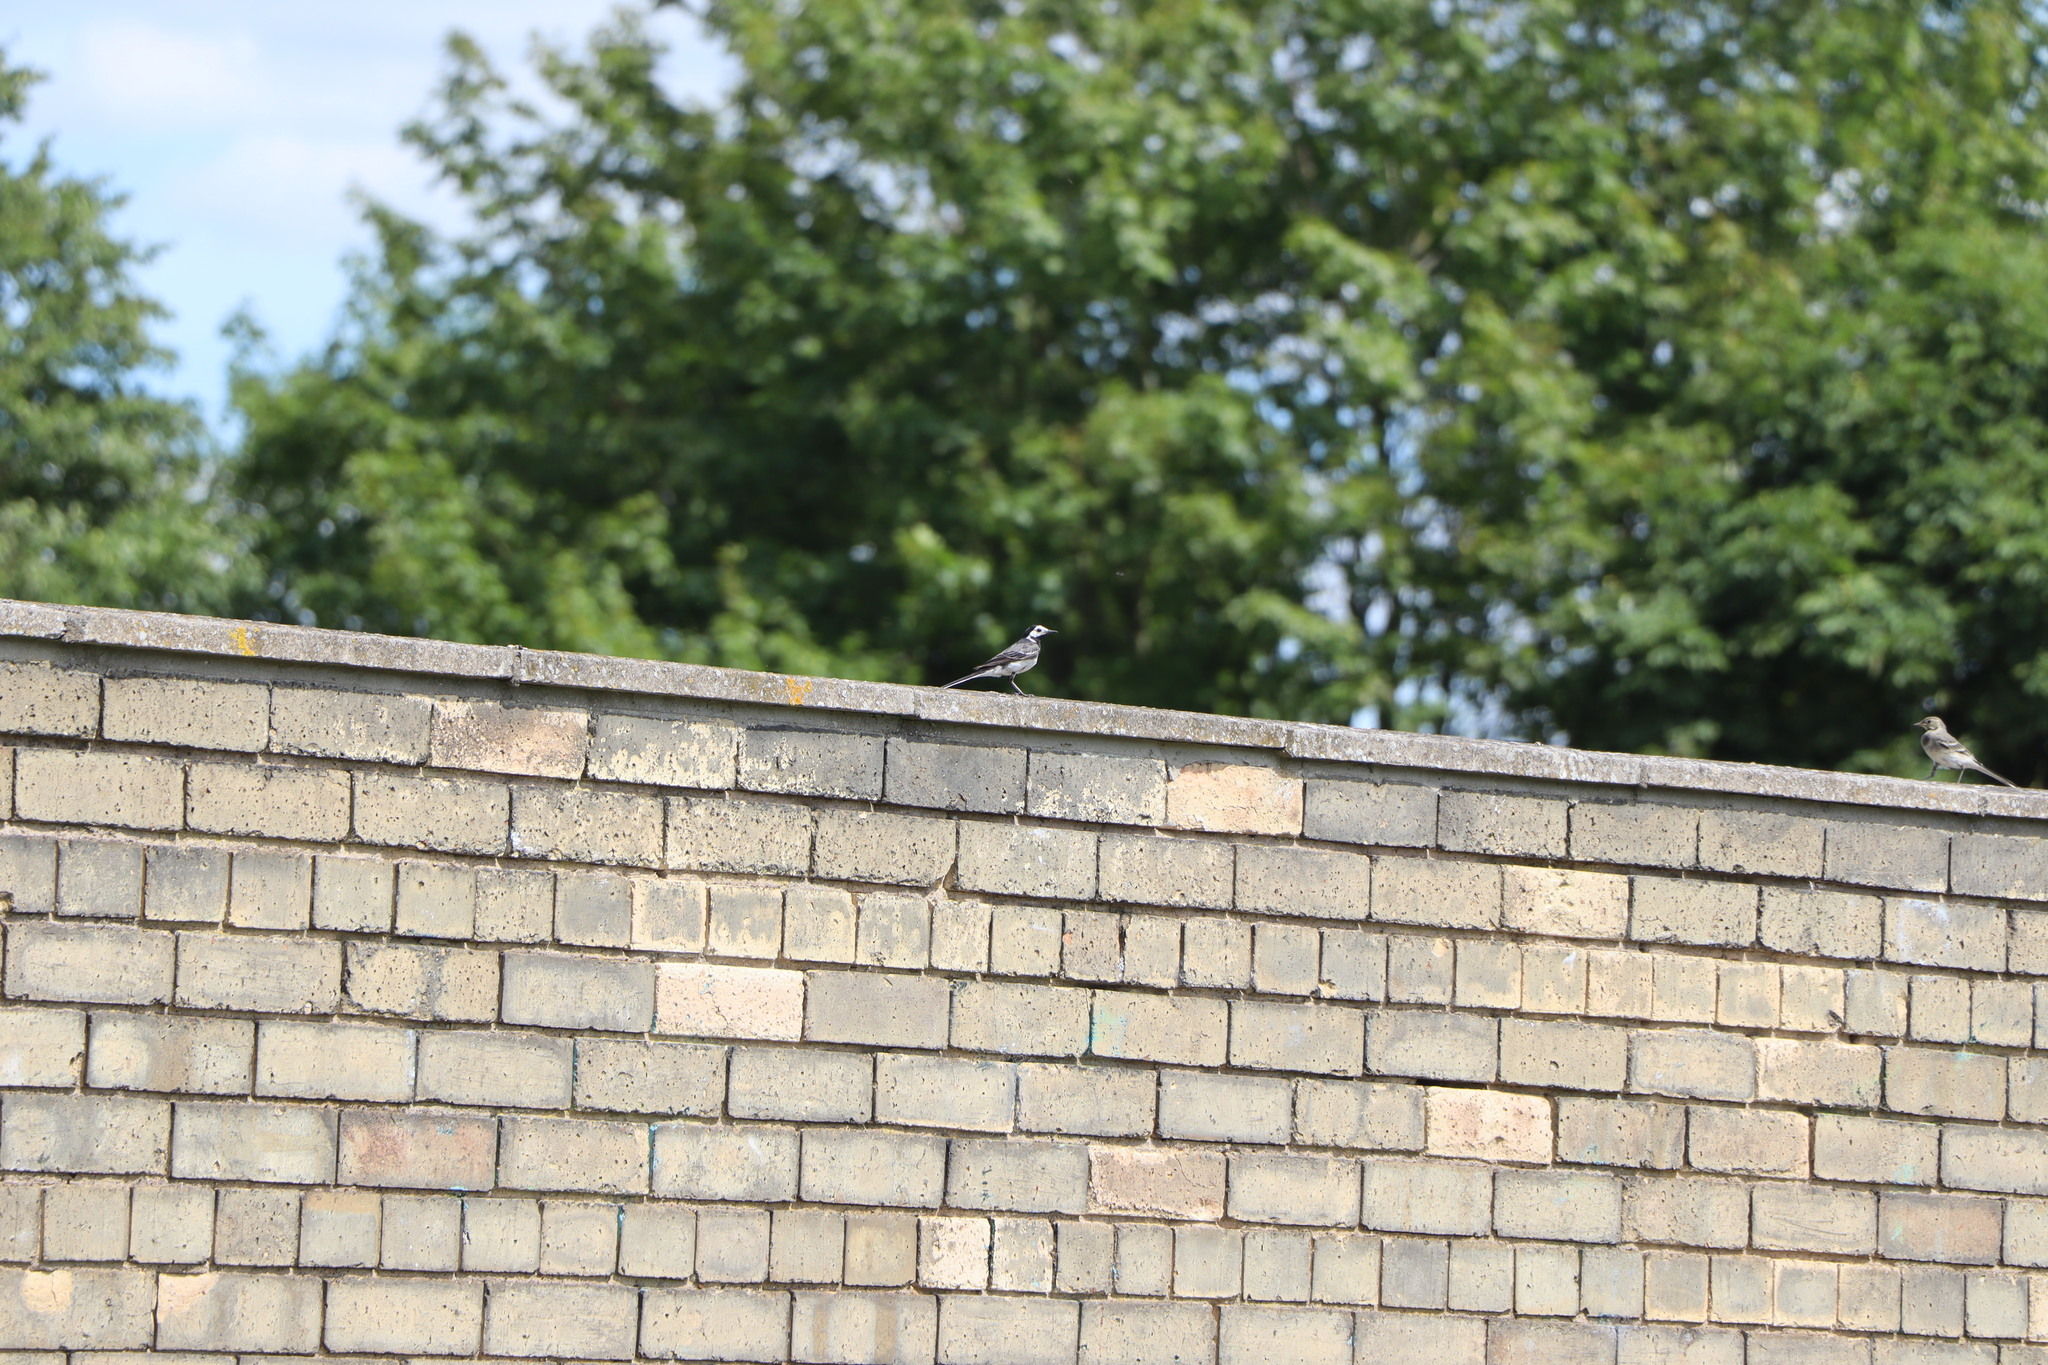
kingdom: Animalia
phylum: Chordata
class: Aves
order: Passeriformes
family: Motacillidae
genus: Motacilla
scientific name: Motacilla alba
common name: White wagtail
